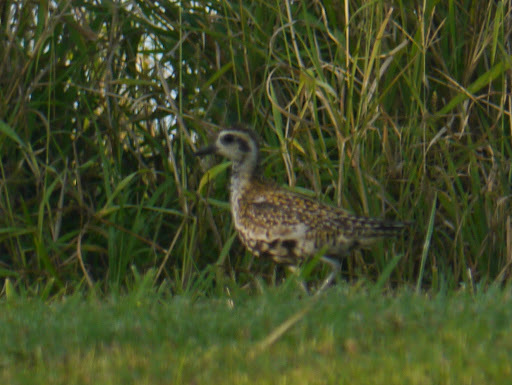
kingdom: Animalia
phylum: Chordata
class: Aves
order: Charadriiformes
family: Charadriidae
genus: Pluvialis
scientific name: Pluvialis fulva
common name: Pacific golden plover
